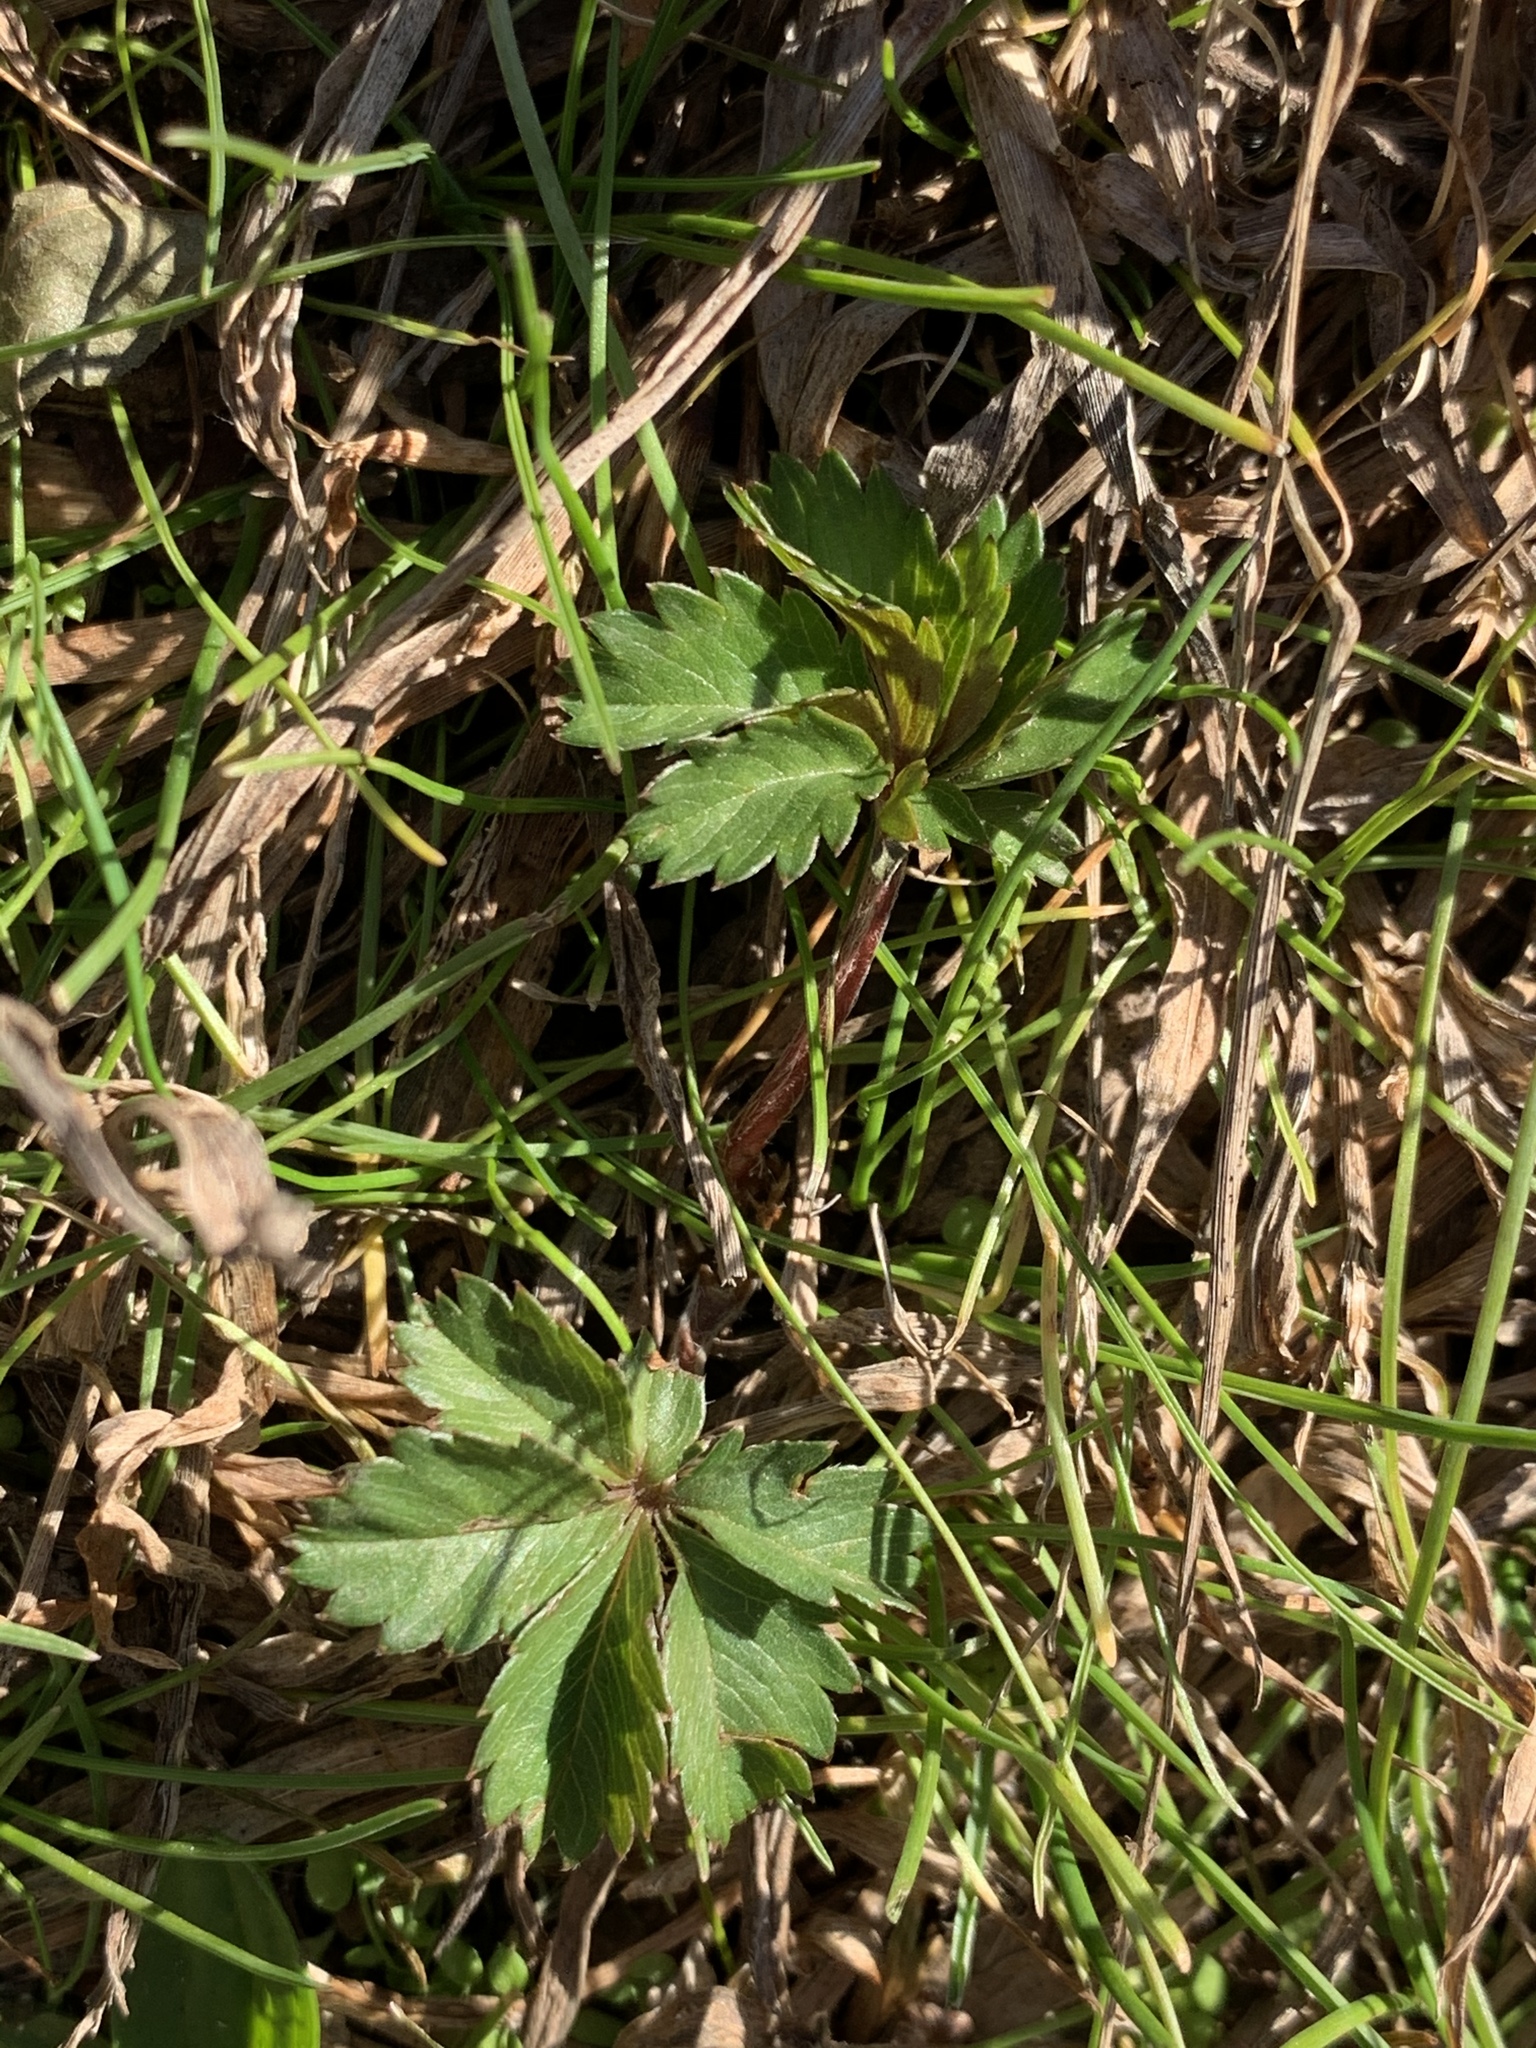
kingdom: Plantae
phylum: Tracheophyta
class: Magnoliopsida
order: Rosales
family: Rosaceae
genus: Potentilla
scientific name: Potentilla canadensis
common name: Canada cinquefoil
